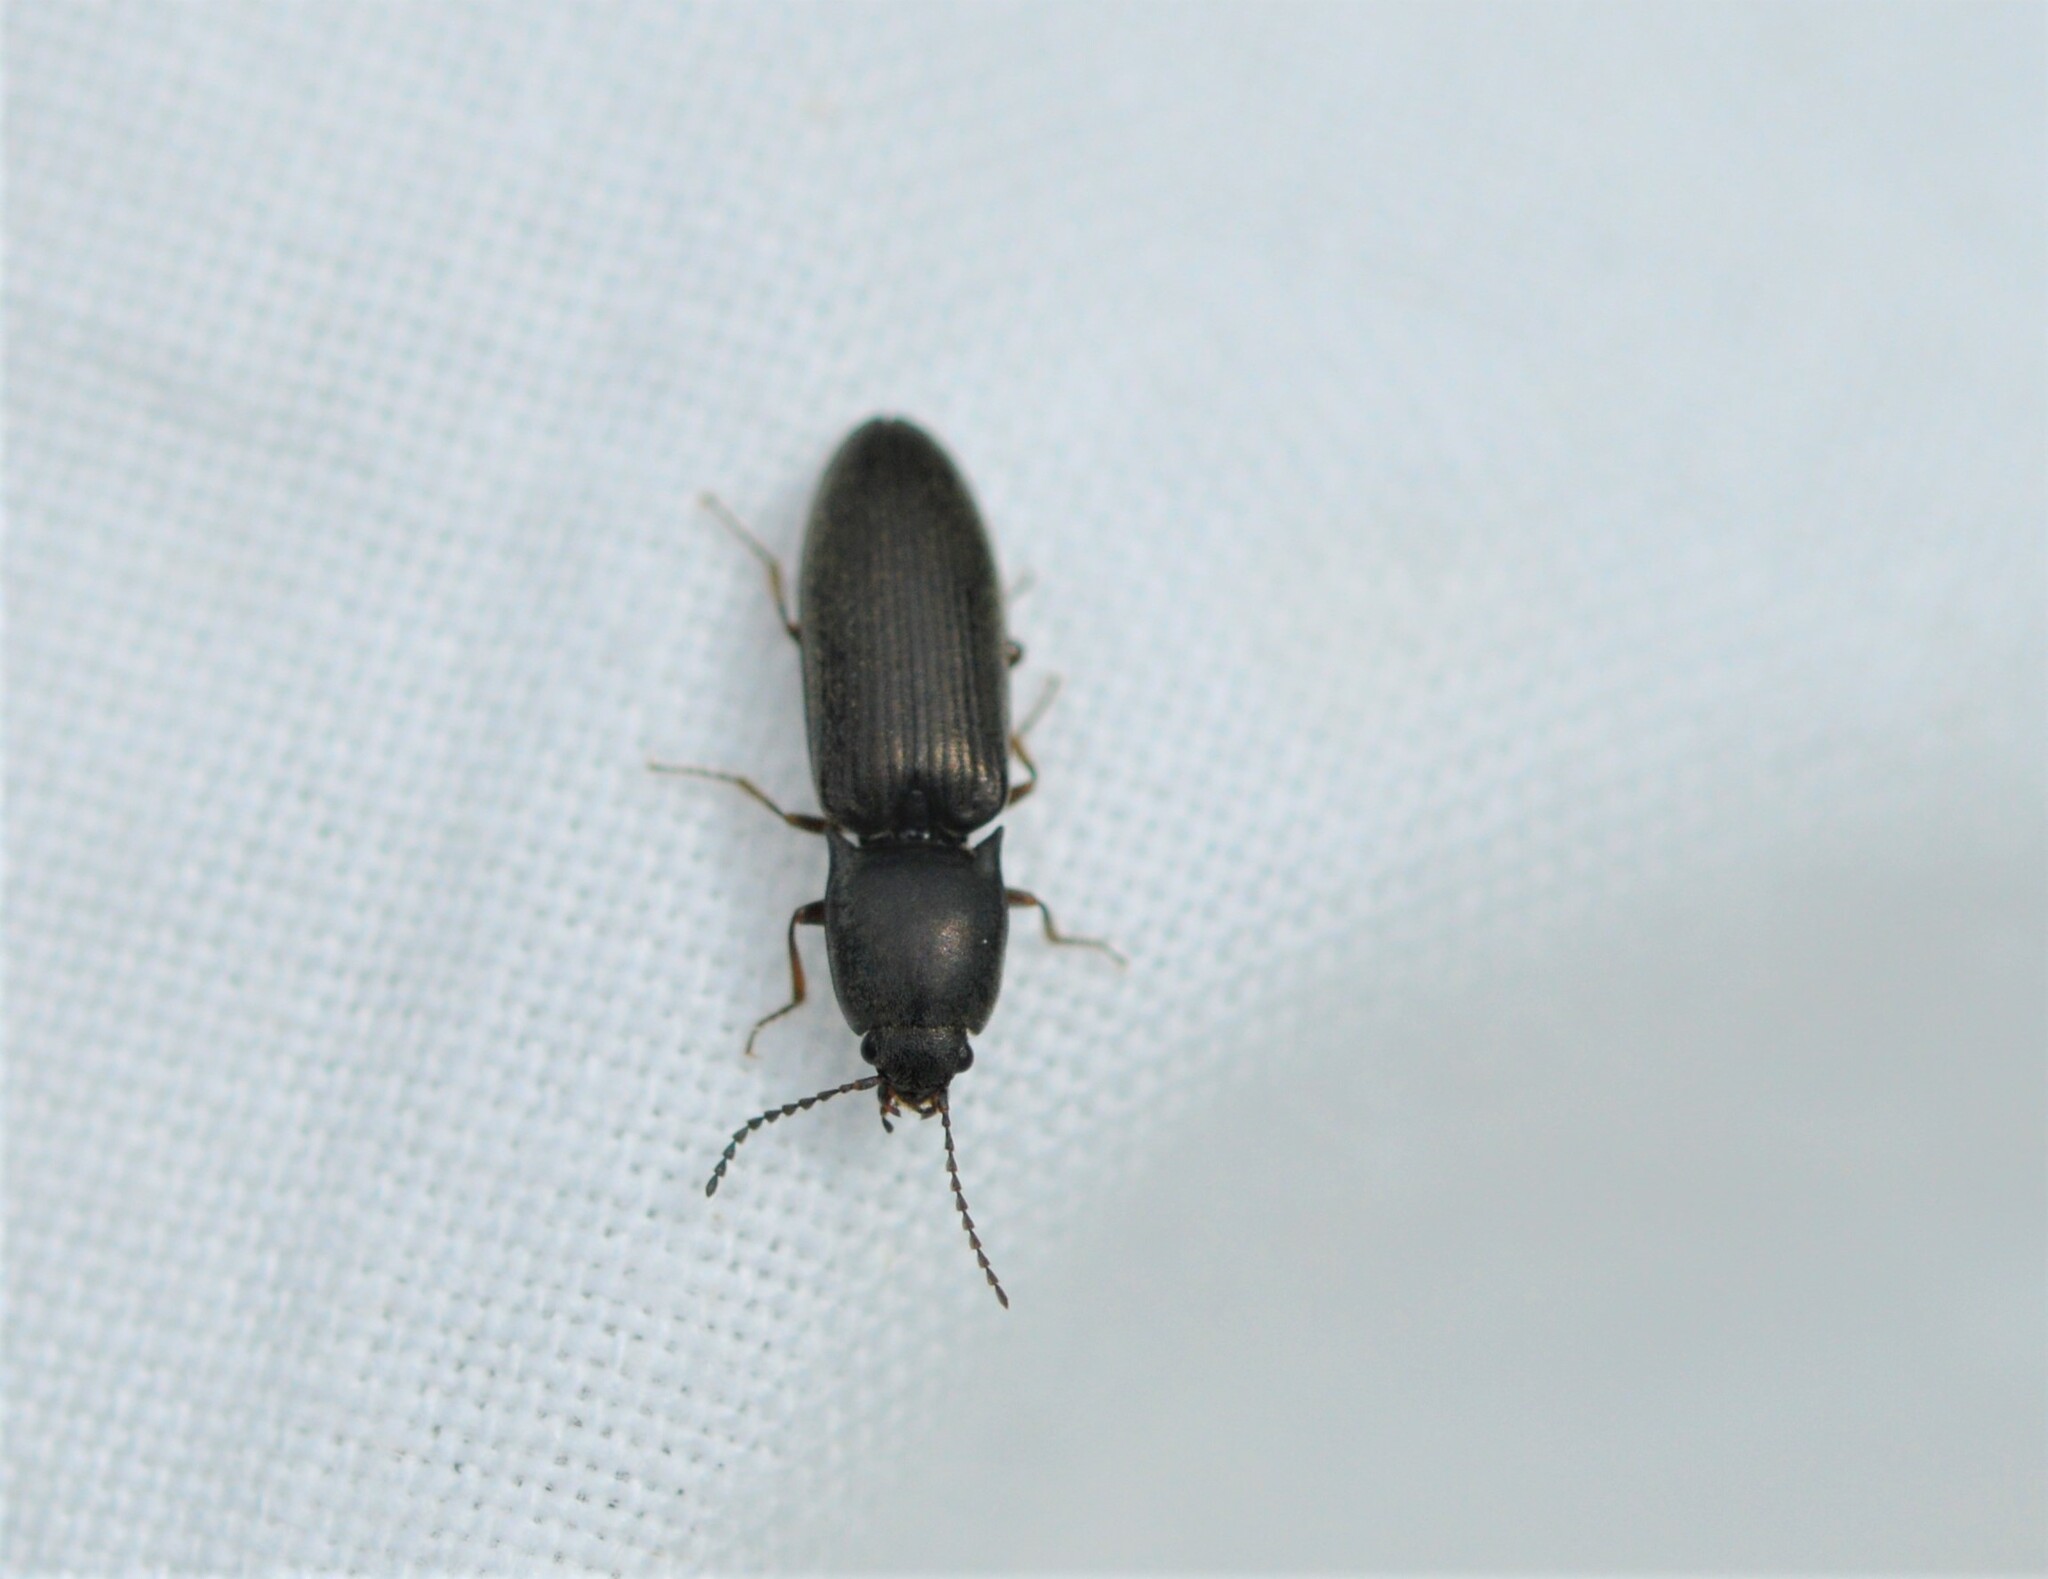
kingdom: Animalia
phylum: Arthropoda
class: Insecta
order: Coleoptera
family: Elateridae
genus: Aplotarsus
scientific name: Aplotarsus incanus
